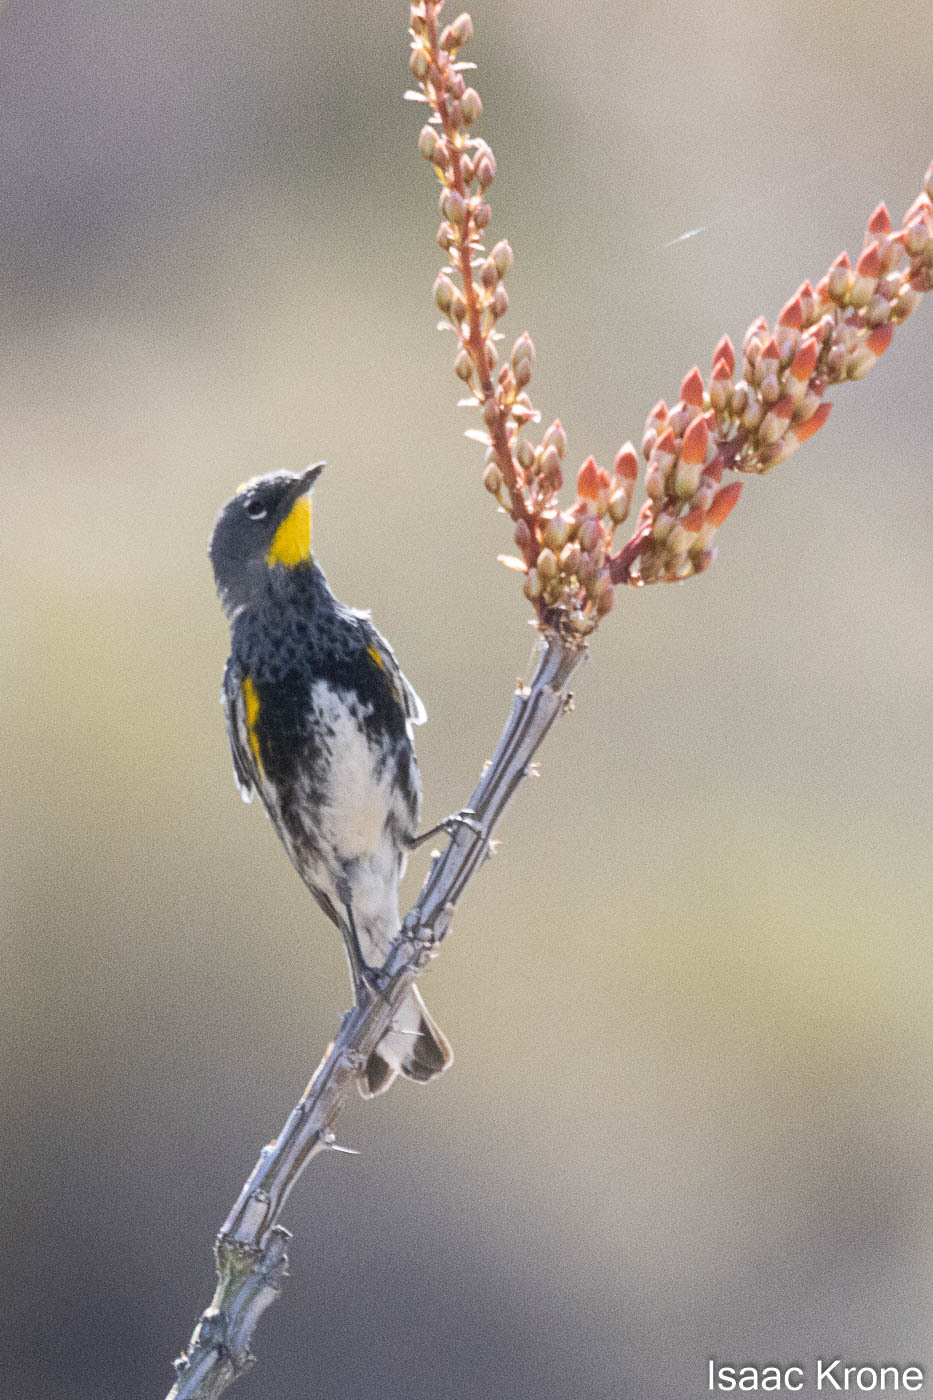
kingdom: Animalia
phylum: Chordata
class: Aves
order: Passeriformes
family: Parulidae
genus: Setophaga
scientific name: Setophaga coronata
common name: Myrtle warbler
